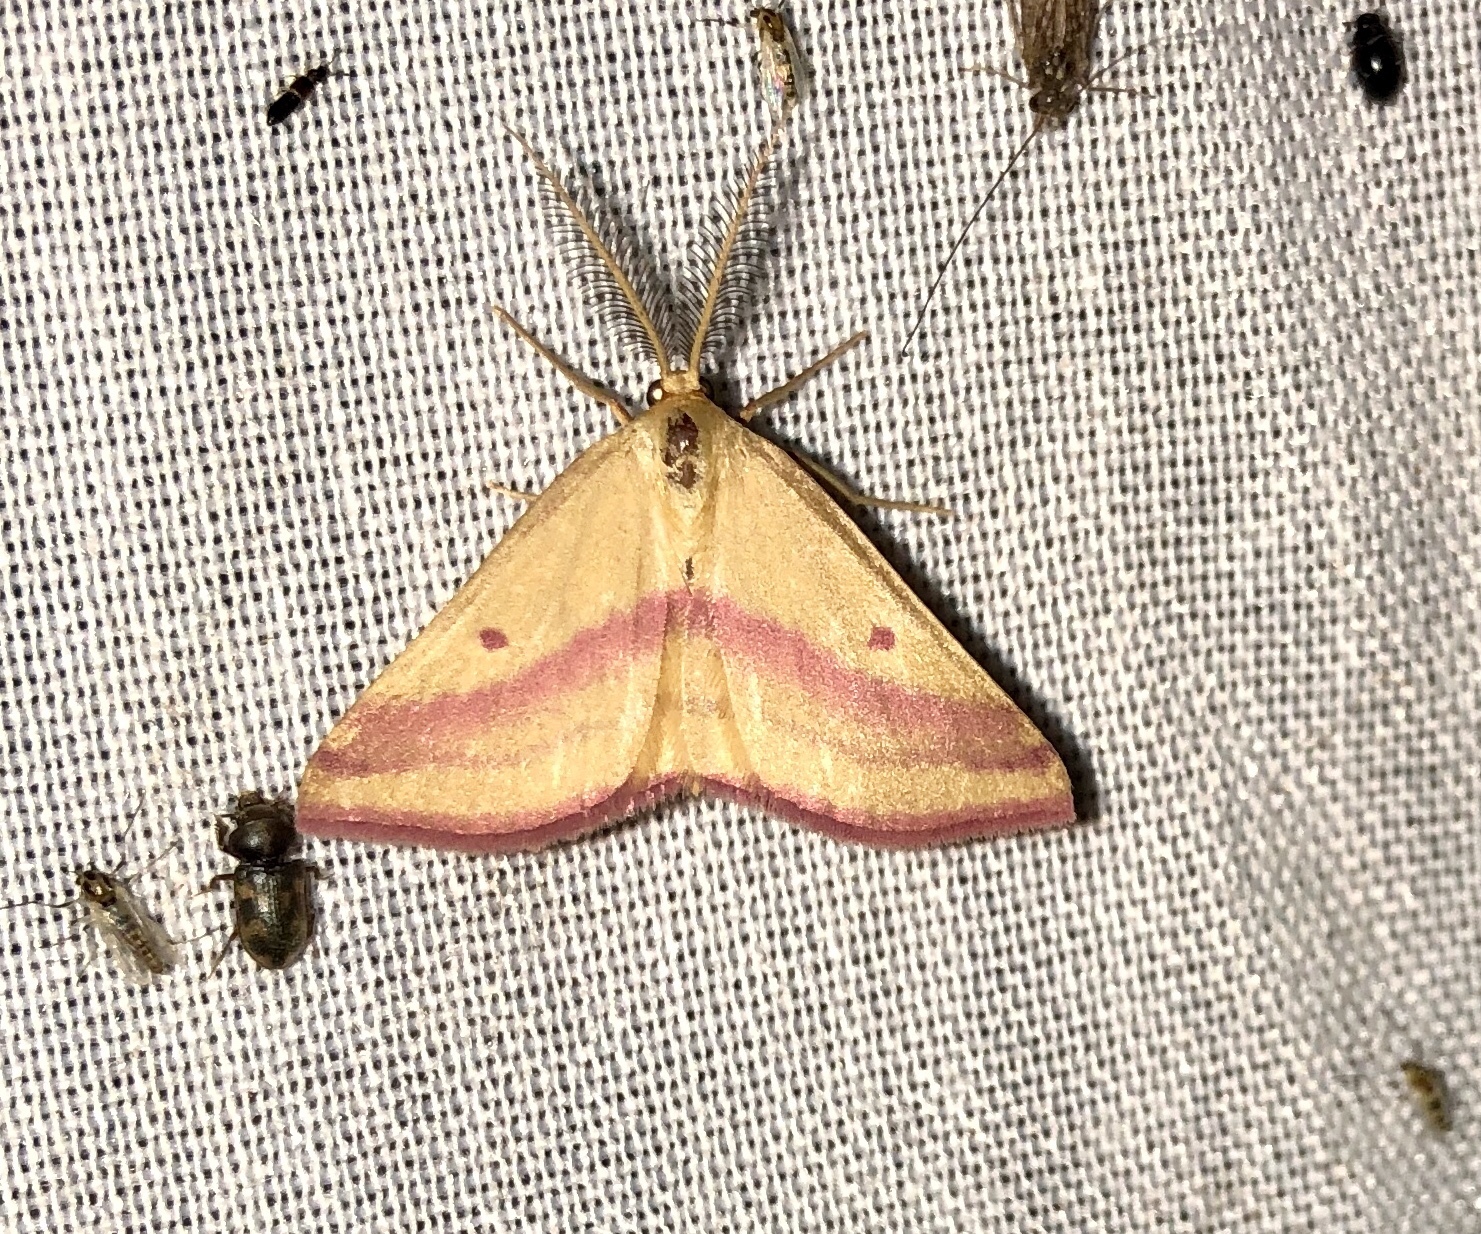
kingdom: Animalia
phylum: Arthropoda
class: Insecta
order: Lepidoptera
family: Geometridae
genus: Haematopis
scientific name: Haematopis grataria
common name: Chickweed geometer
